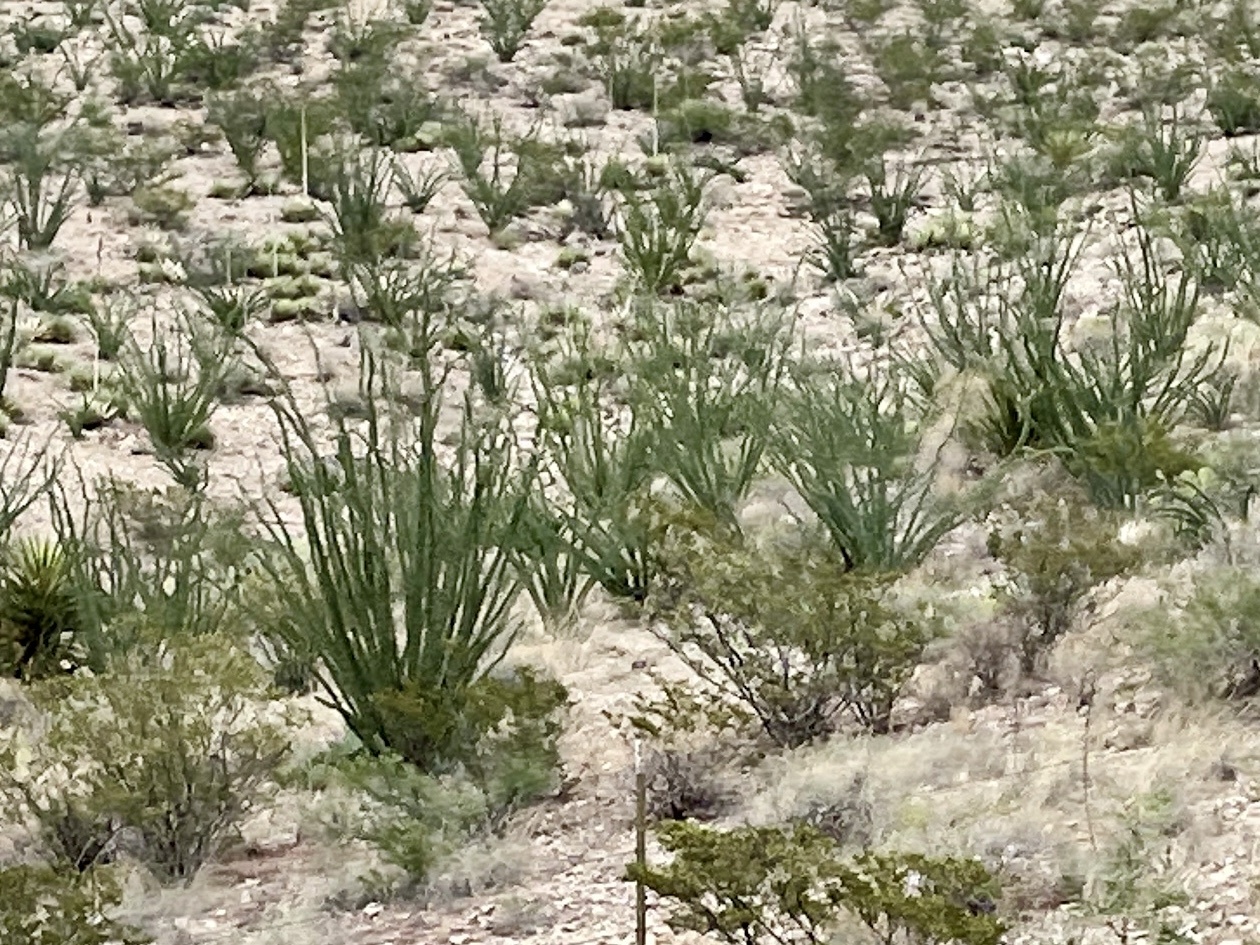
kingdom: Plantae
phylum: Tracheophyta
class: Magnoliopsida
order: Ericales
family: Fouquieriaceae
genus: Fouquieria
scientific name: Fouquieria splendens
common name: Vine-cactus
